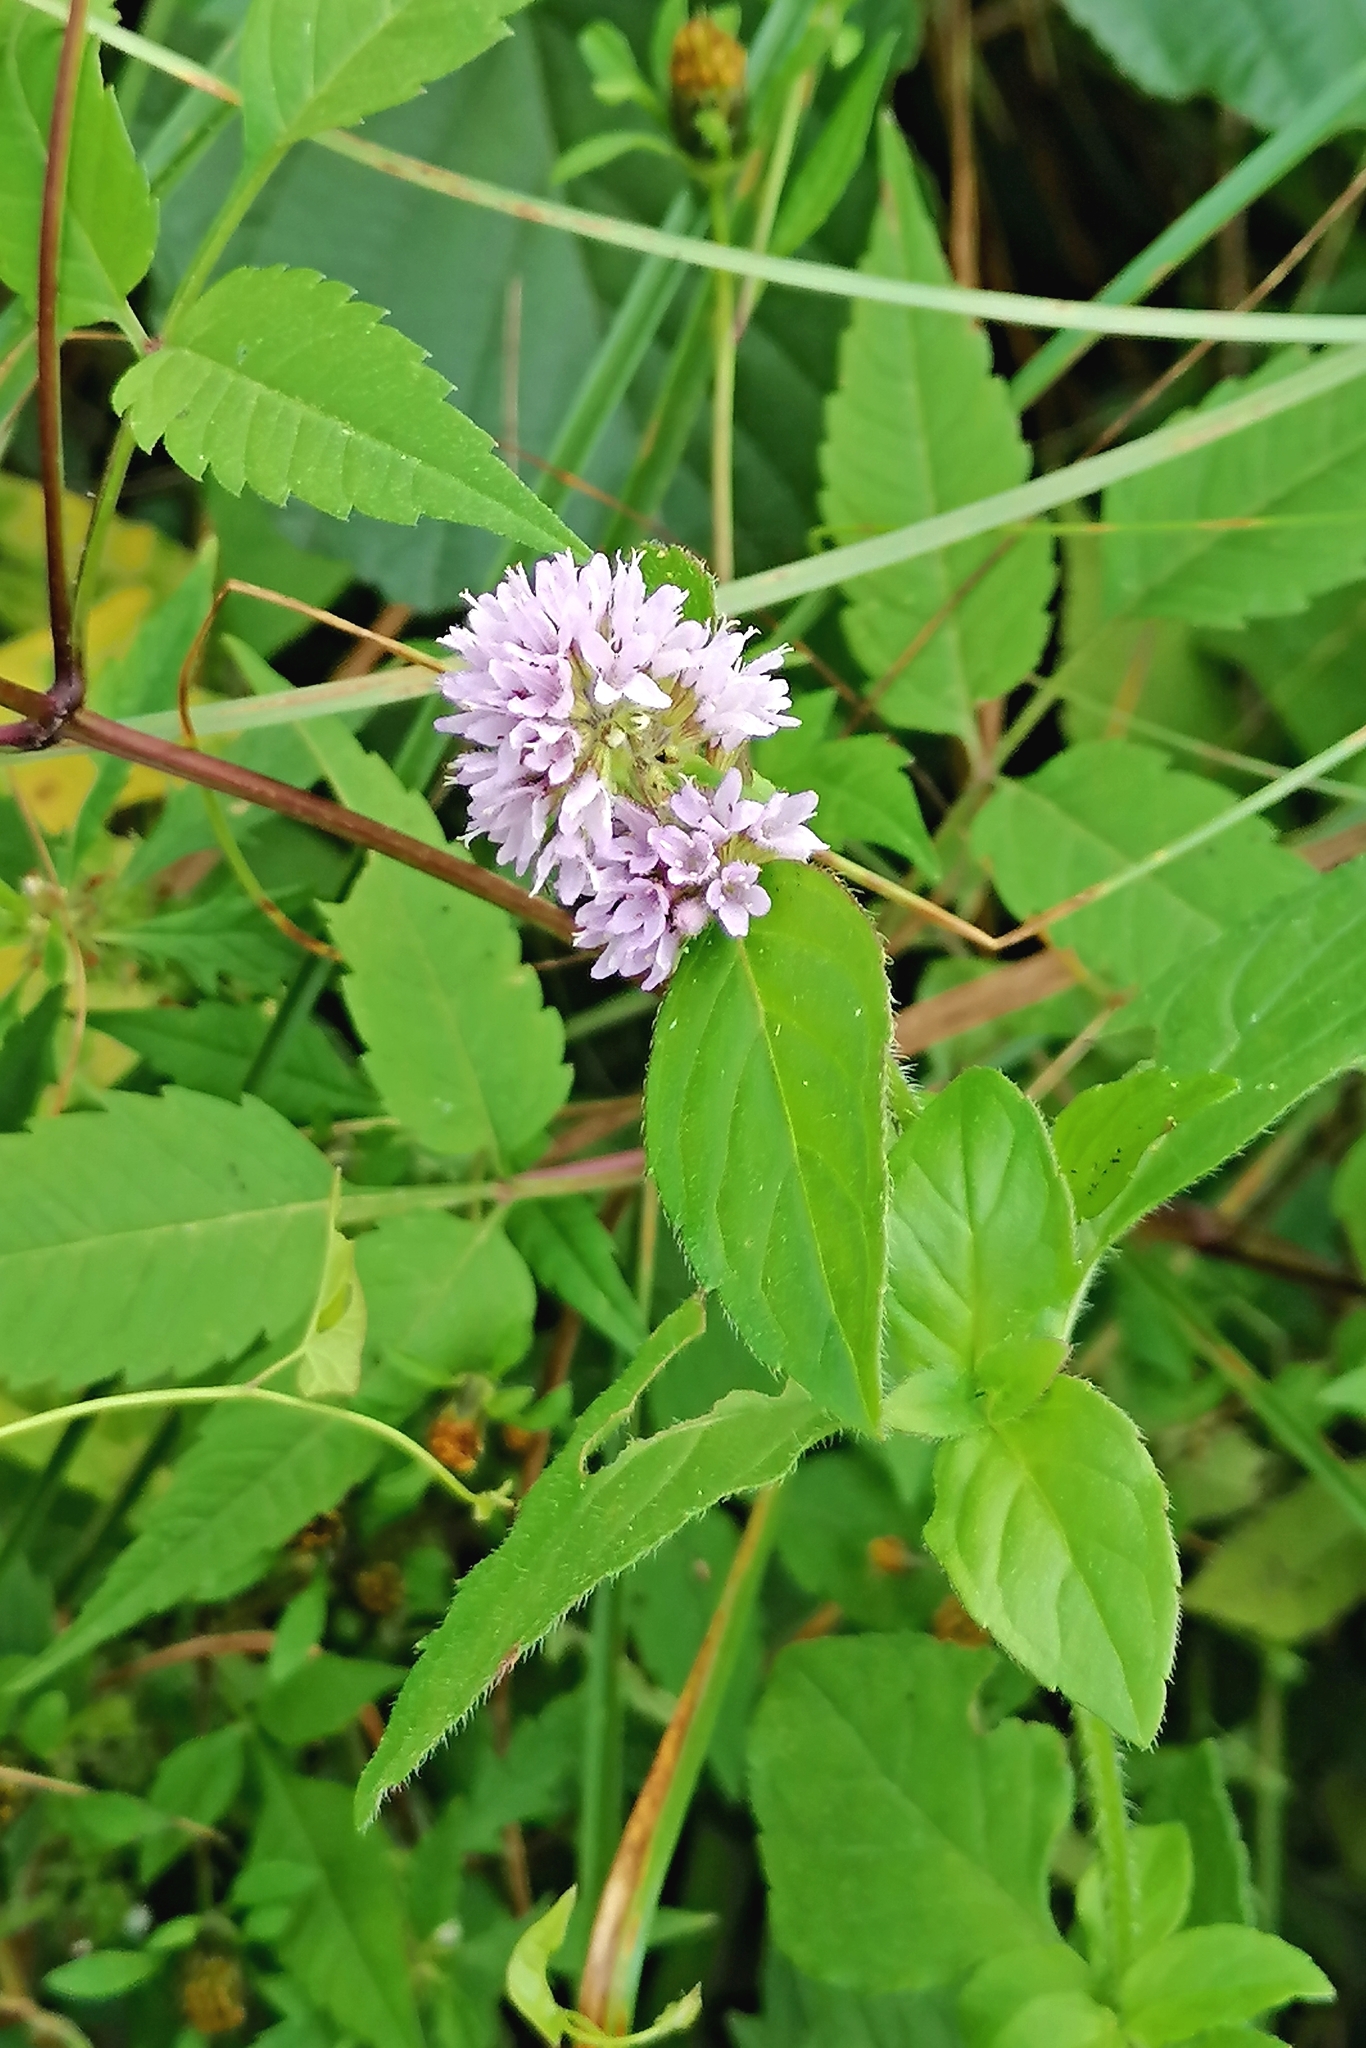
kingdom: Plantae
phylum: Tracheophyta
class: Magnoliopsida
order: Lamiales
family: Lamiaceae
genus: Mentha
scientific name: Mentha aquatica
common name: Water mint
